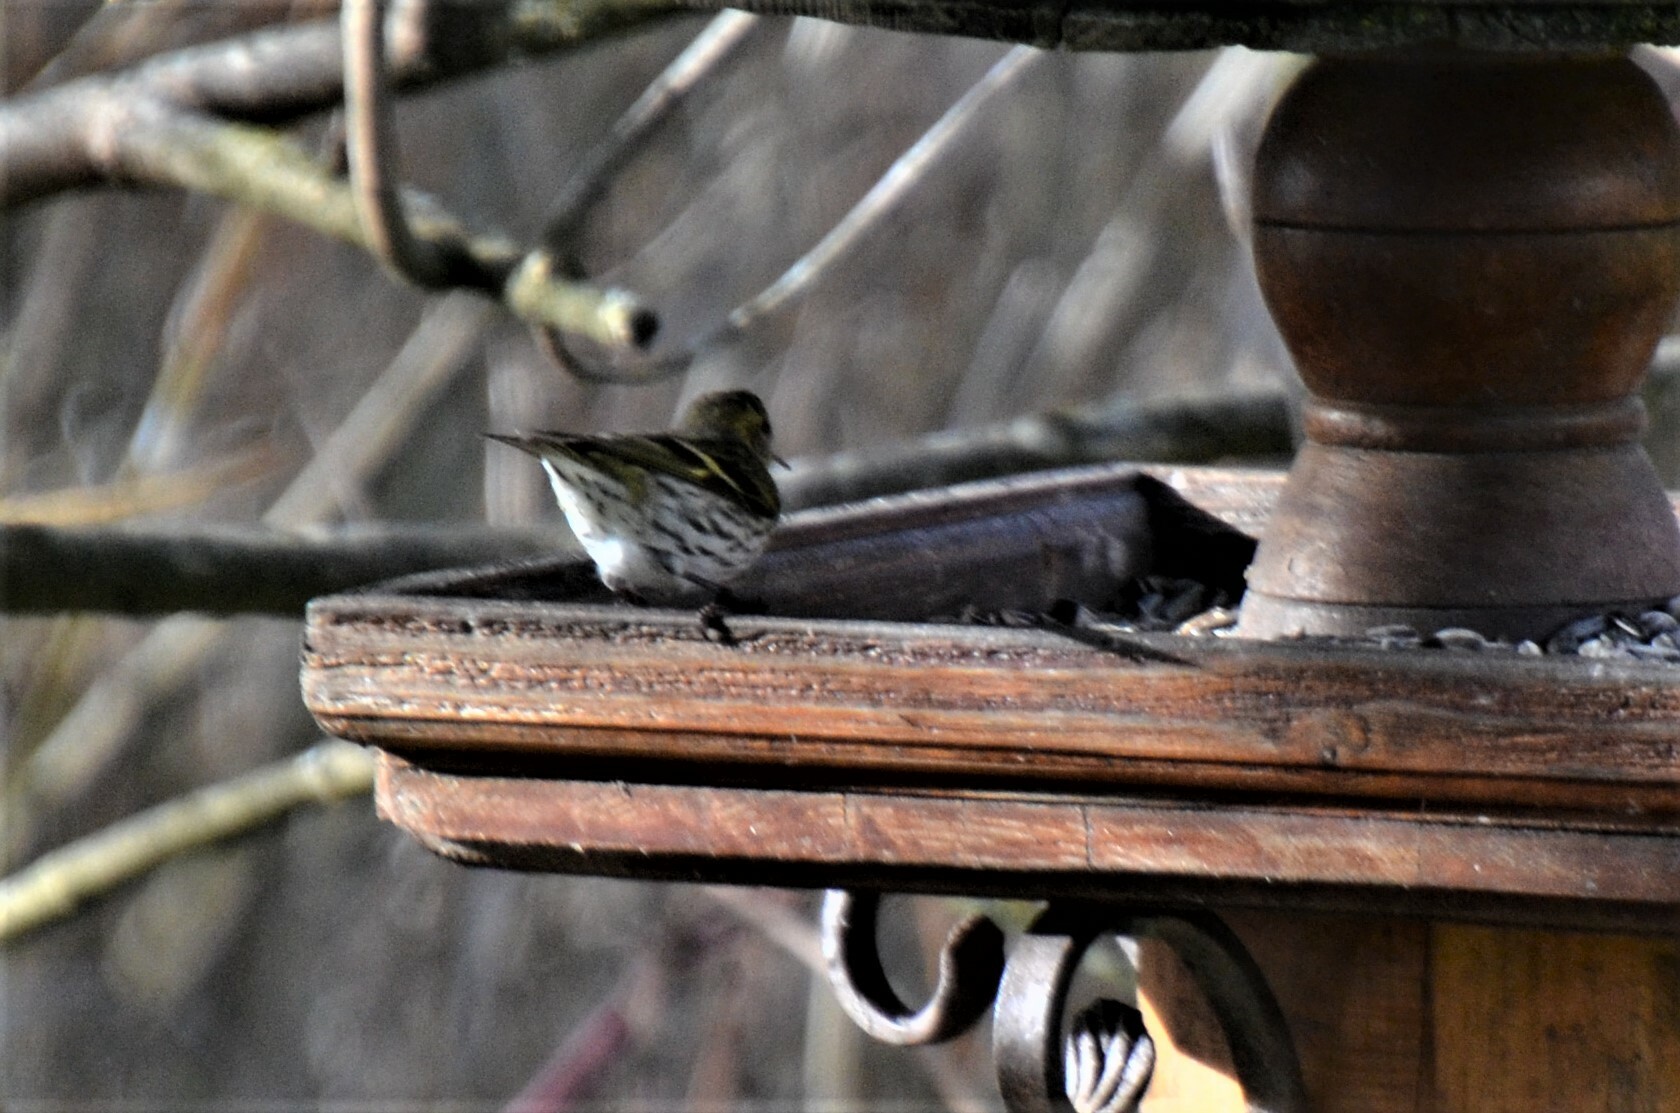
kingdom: Animalia
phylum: Chordata
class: Aves
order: Passeriformes
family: Fringillidae
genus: Spinus
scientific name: Spinus spinus
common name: Eurasian siskin
